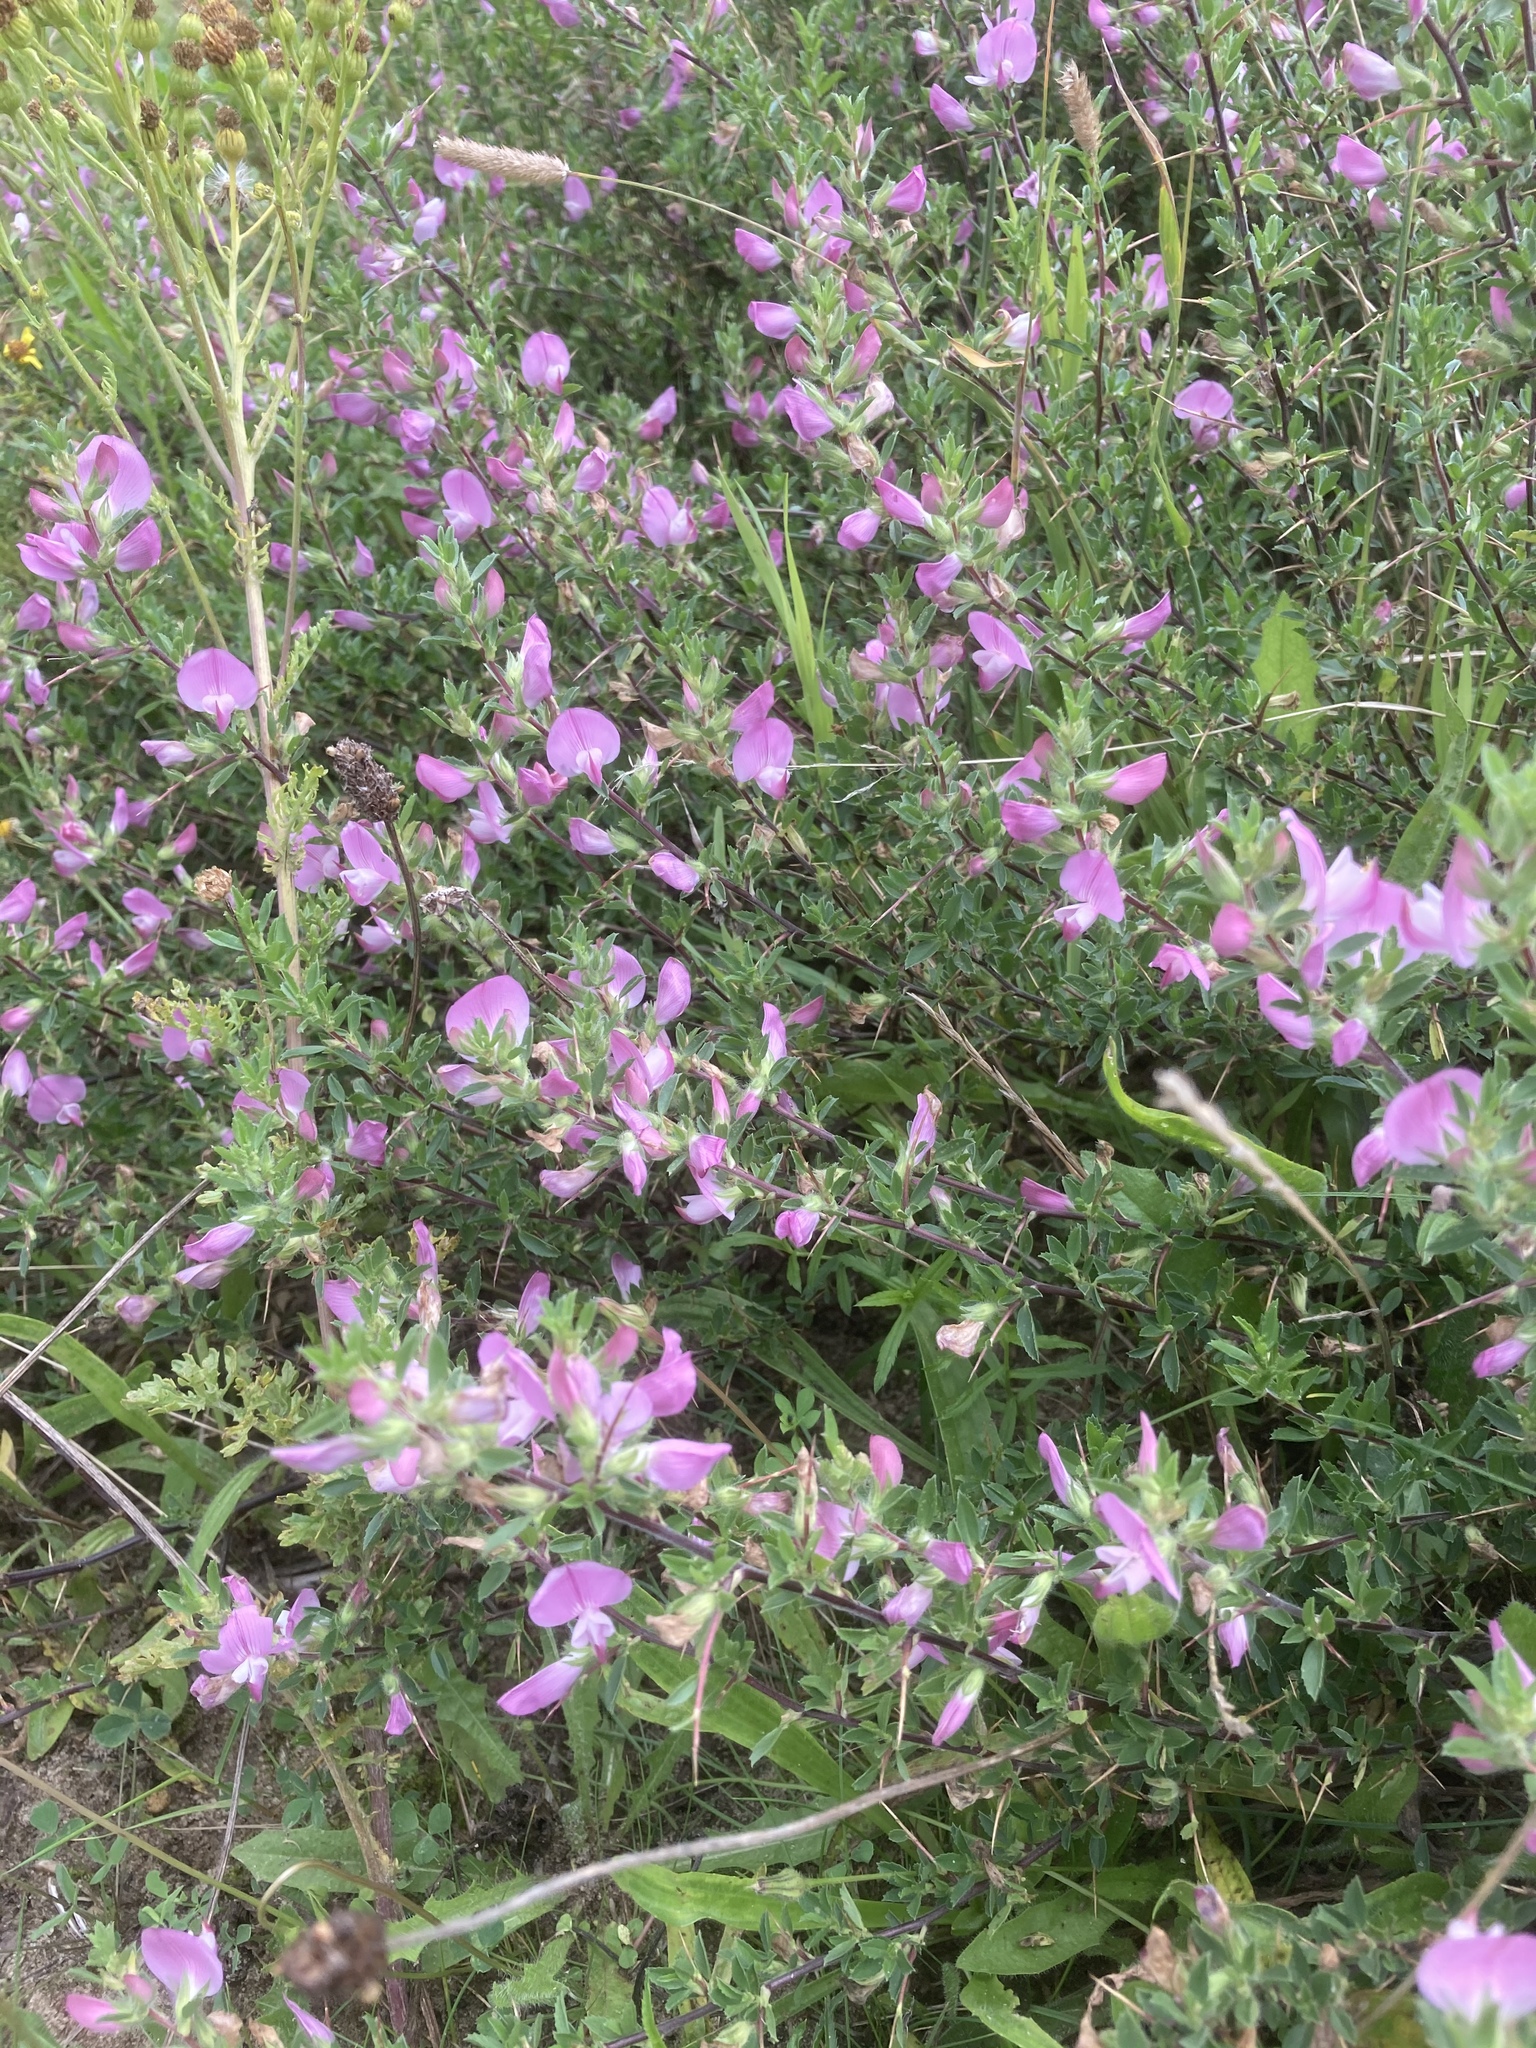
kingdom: Plantae
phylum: Tracheophyta
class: Magnoliopsida
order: Fabales
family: Fabaceae
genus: Ononis
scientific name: Ononis spinosa
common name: Spiny restharrow
